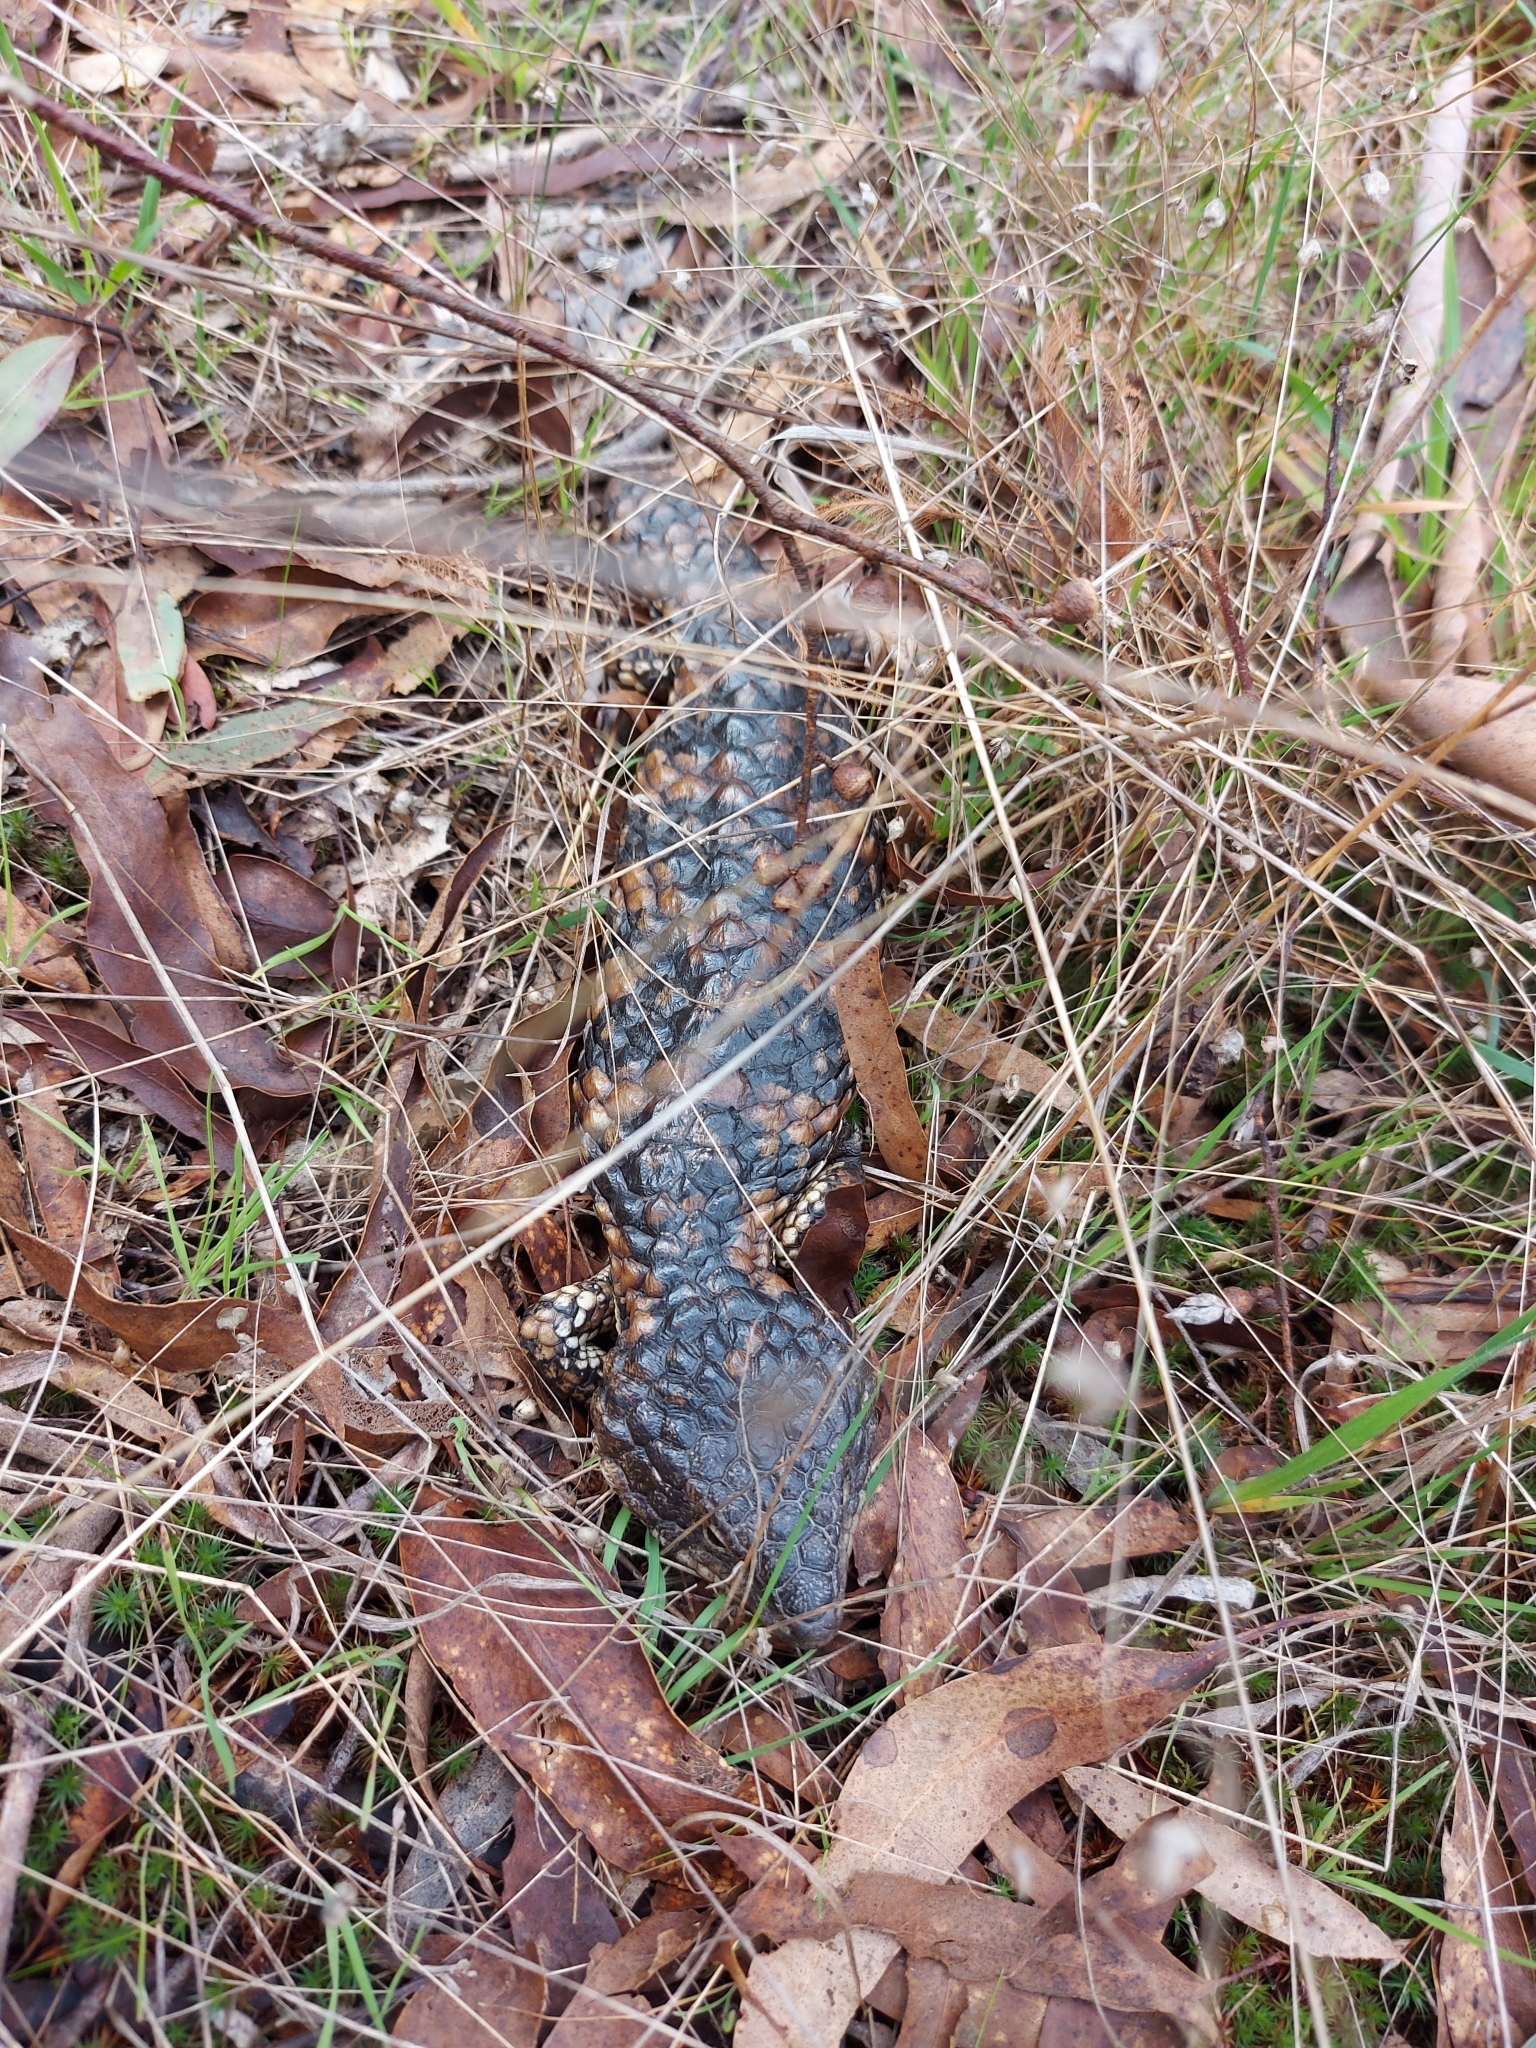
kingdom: Animalia
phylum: Chordata
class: Squamata
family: Scincidae
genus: Tiliqua
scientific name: Tiliqua rugosa
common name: Pinecone lizard
